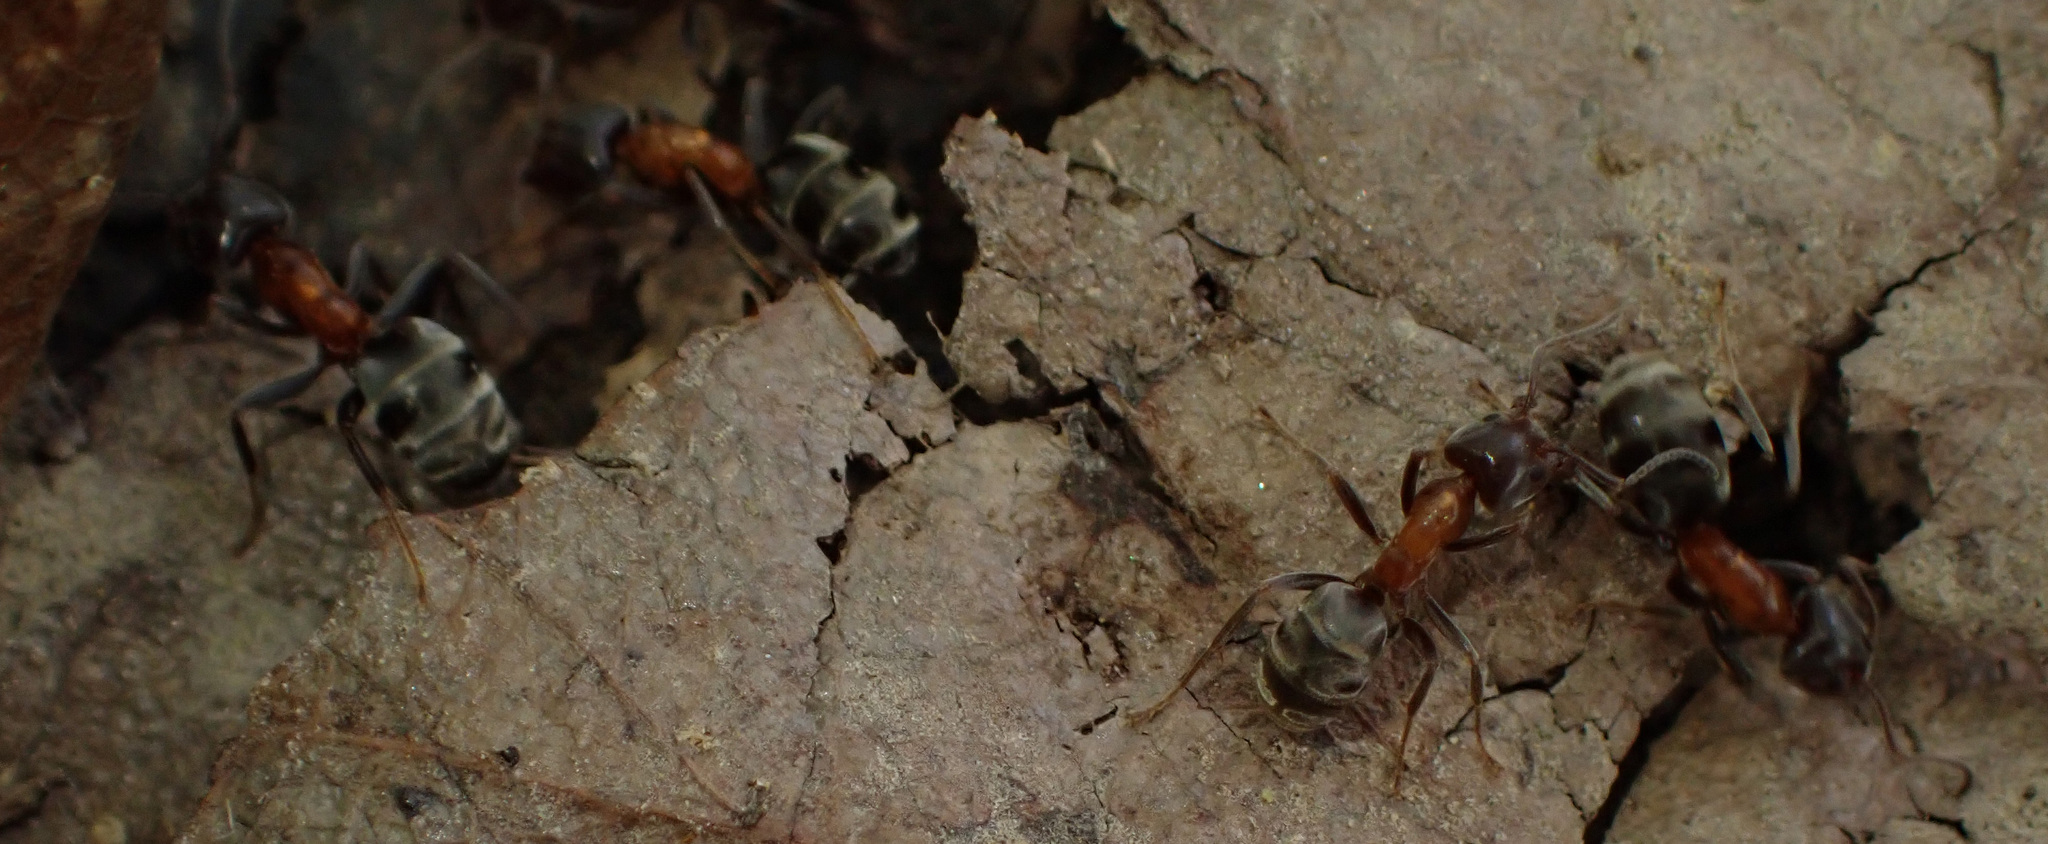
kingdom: Animalia
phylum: Arthropoda
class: Insecta
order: Hymenoptera
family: Formicidae
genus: Liometopum
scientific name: Liometopum microcephalum
